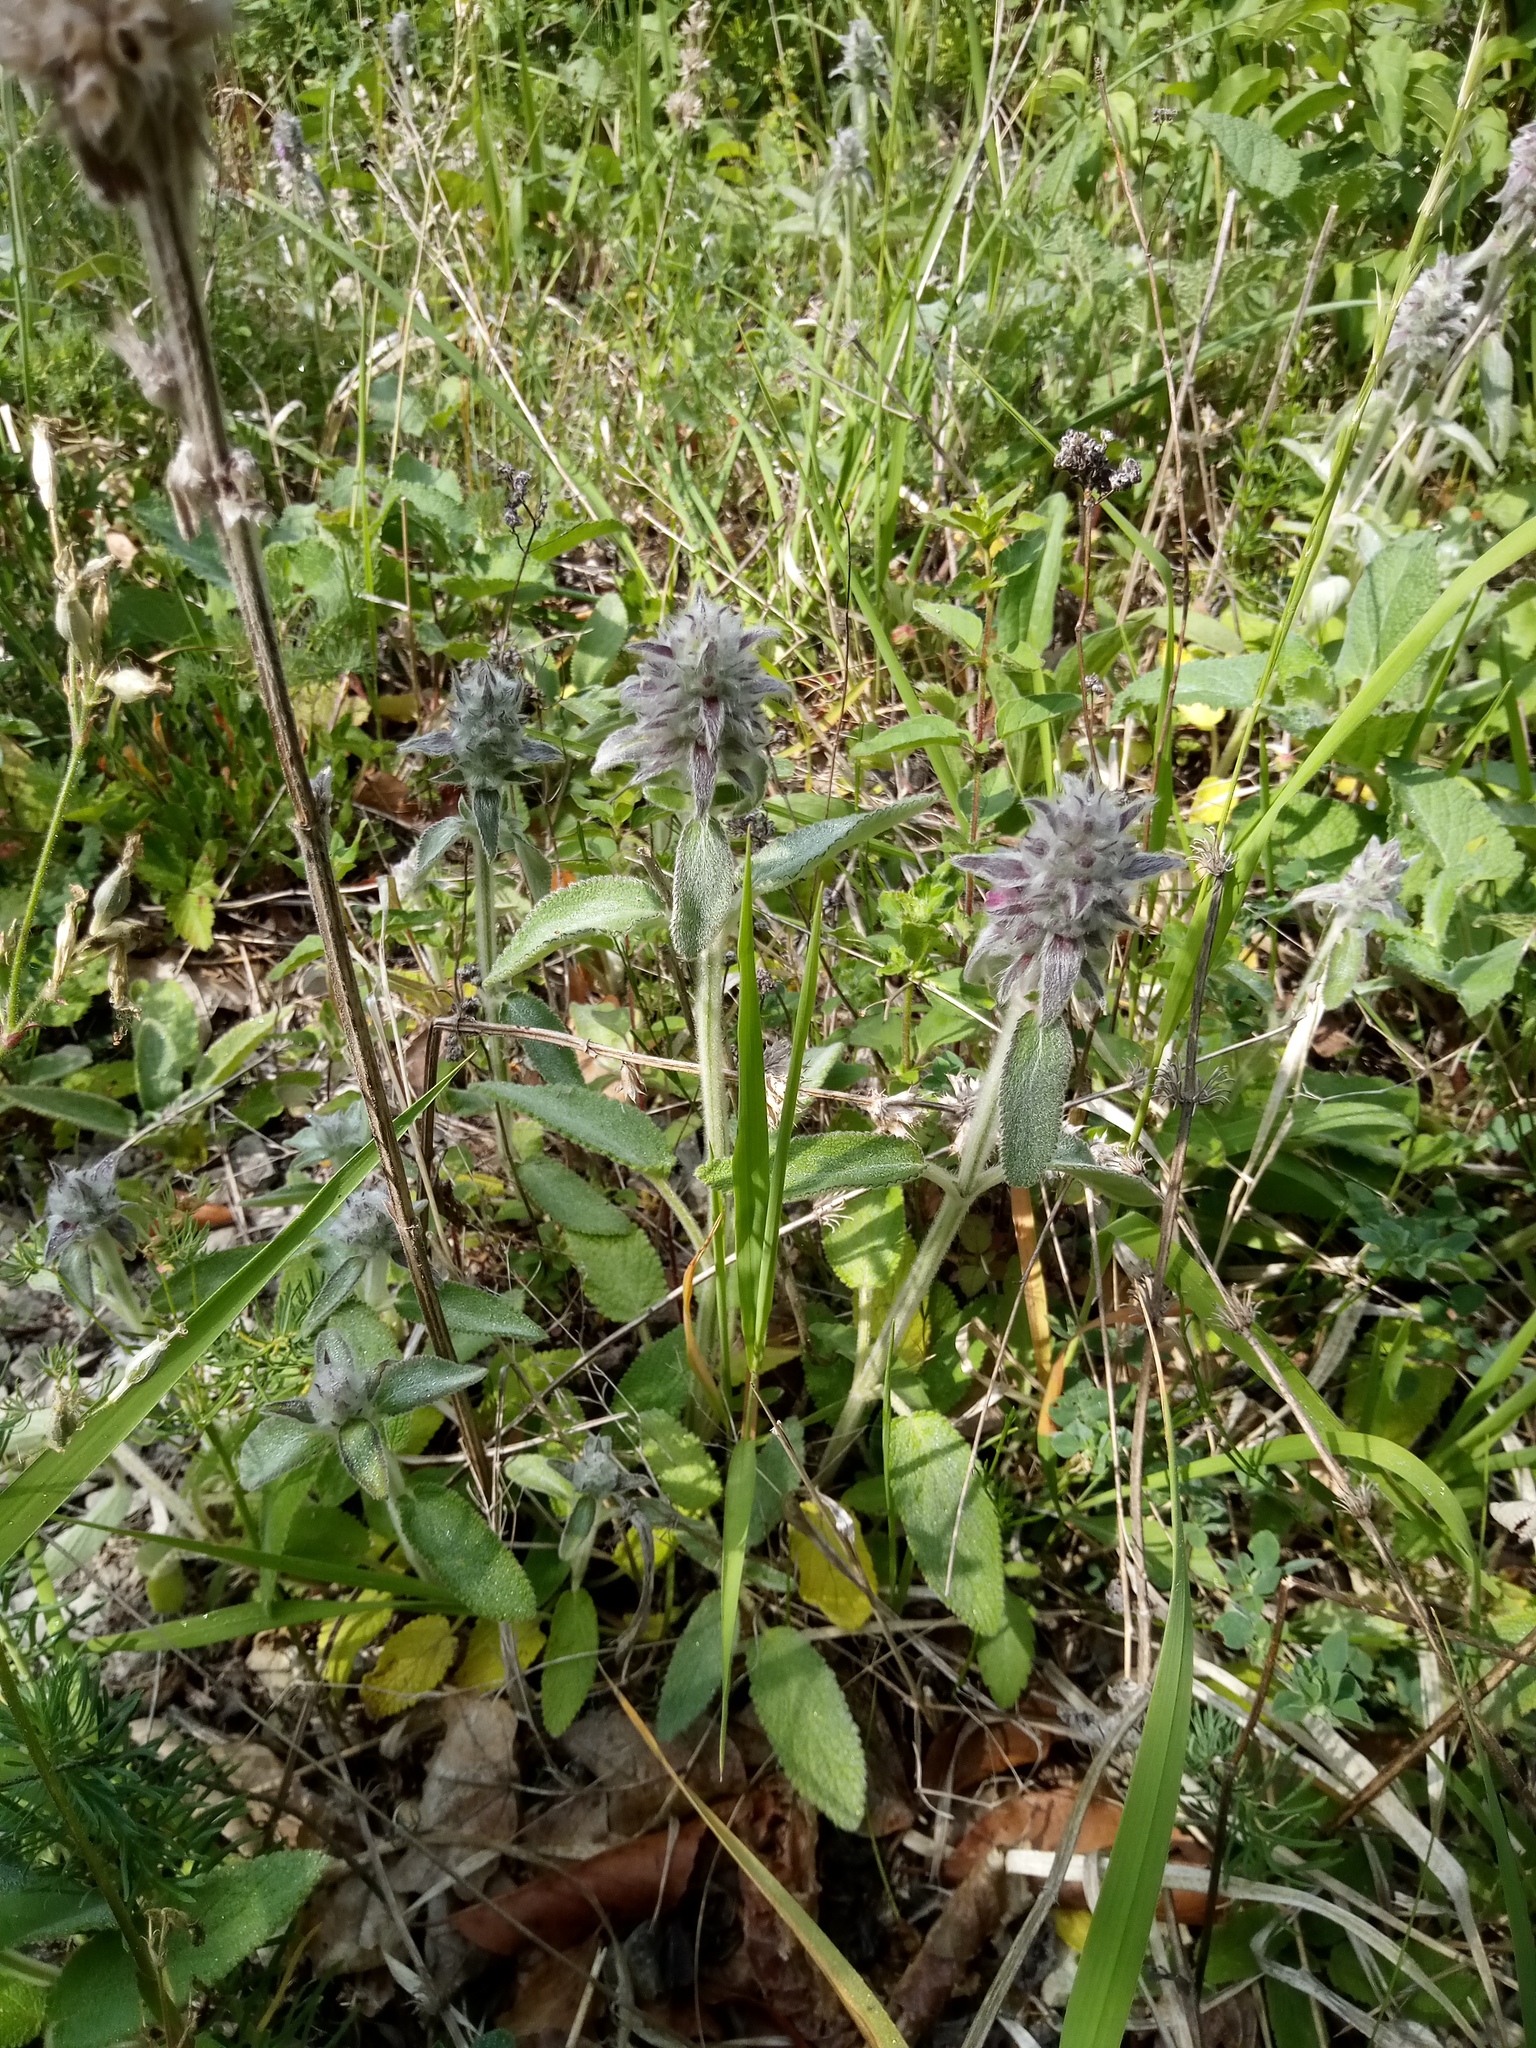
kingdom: Plantae
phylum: Tracheophyta
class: Magnoliopsida
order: Lamiales
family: Lamiaceae
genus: Stachys
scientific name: Stachys germanica
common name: Downy woundwort
